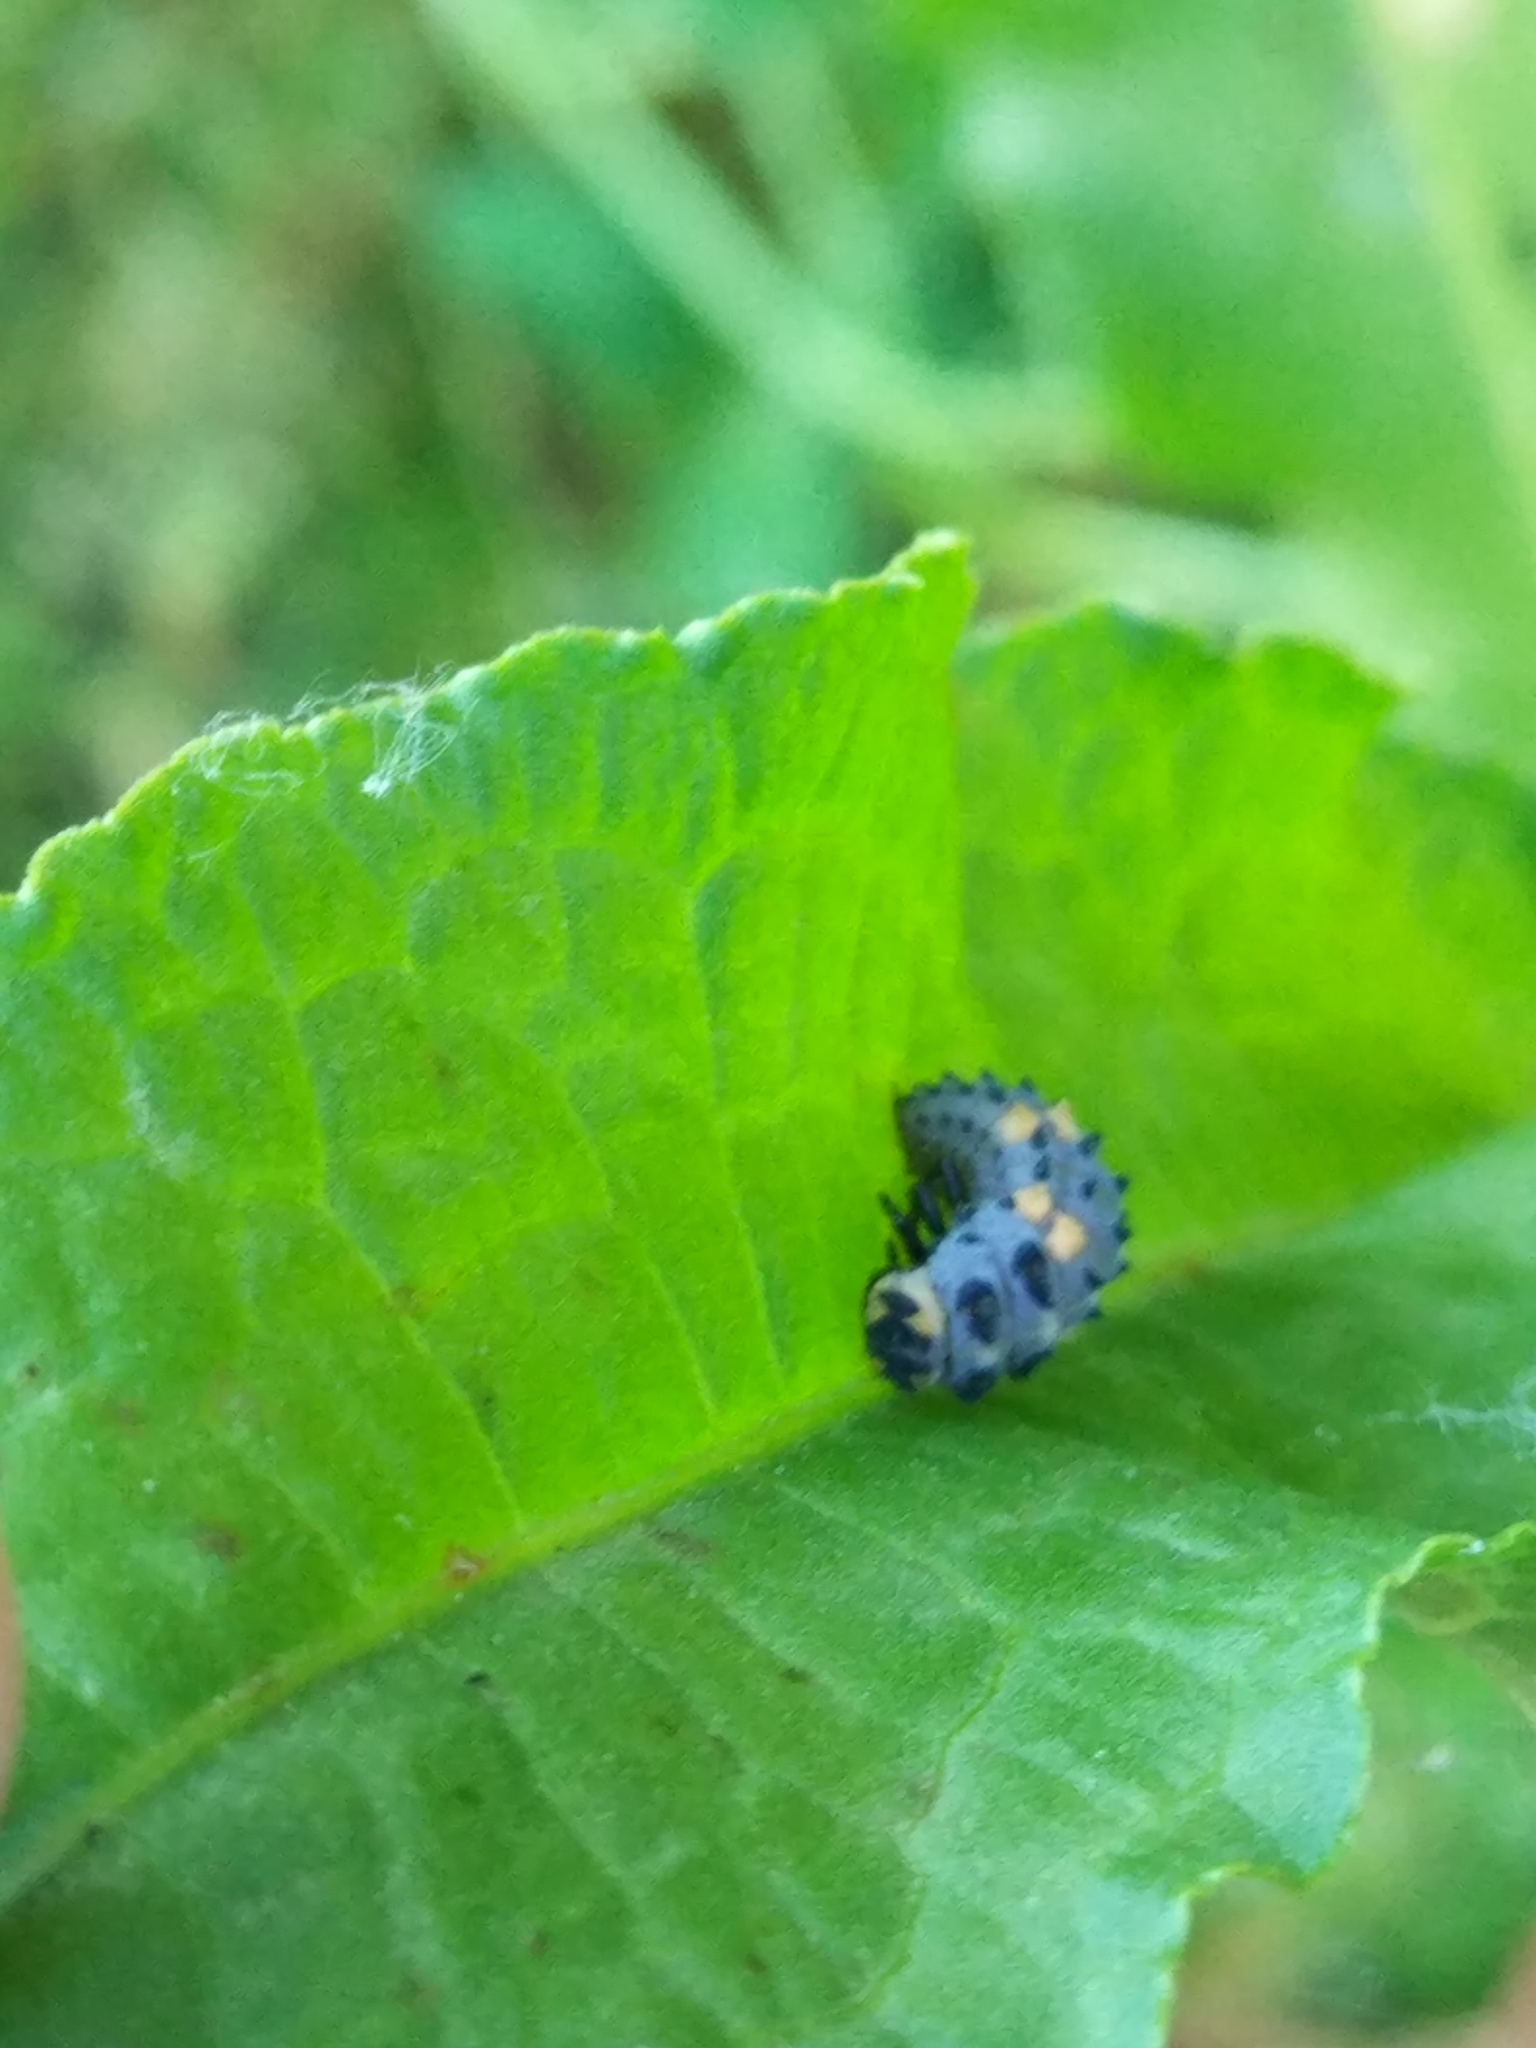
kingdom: Animalia
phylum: Arthropoda
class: Insecta
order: Coleoptera
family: Coccinellidae
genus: Coccinella
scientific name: Coccinella septempunctata
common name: Sevenspotted lady beetle
